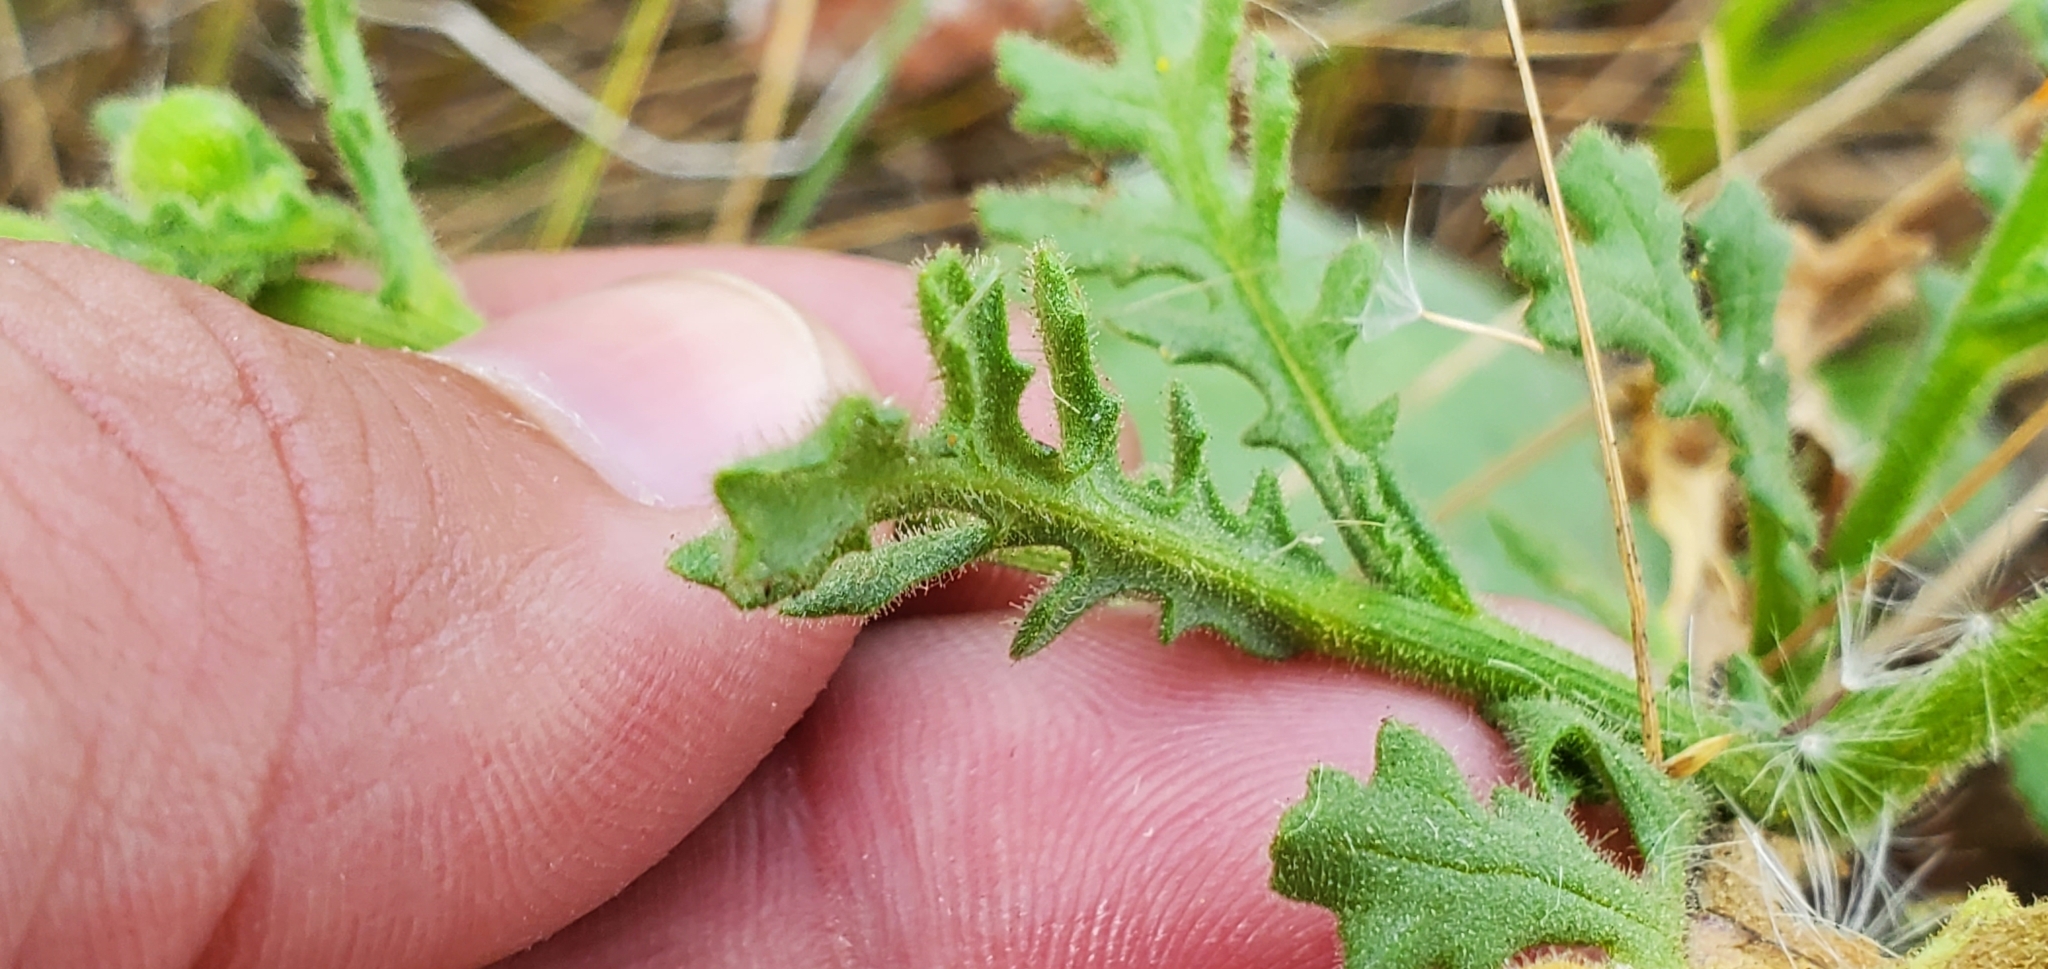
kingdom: Plantae
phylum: Tracheophyta
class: Magnoliopsida
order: Asterales
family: Asteraceae
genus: Senecio
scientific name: Senecio viscosus
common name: Sticky groundsel
